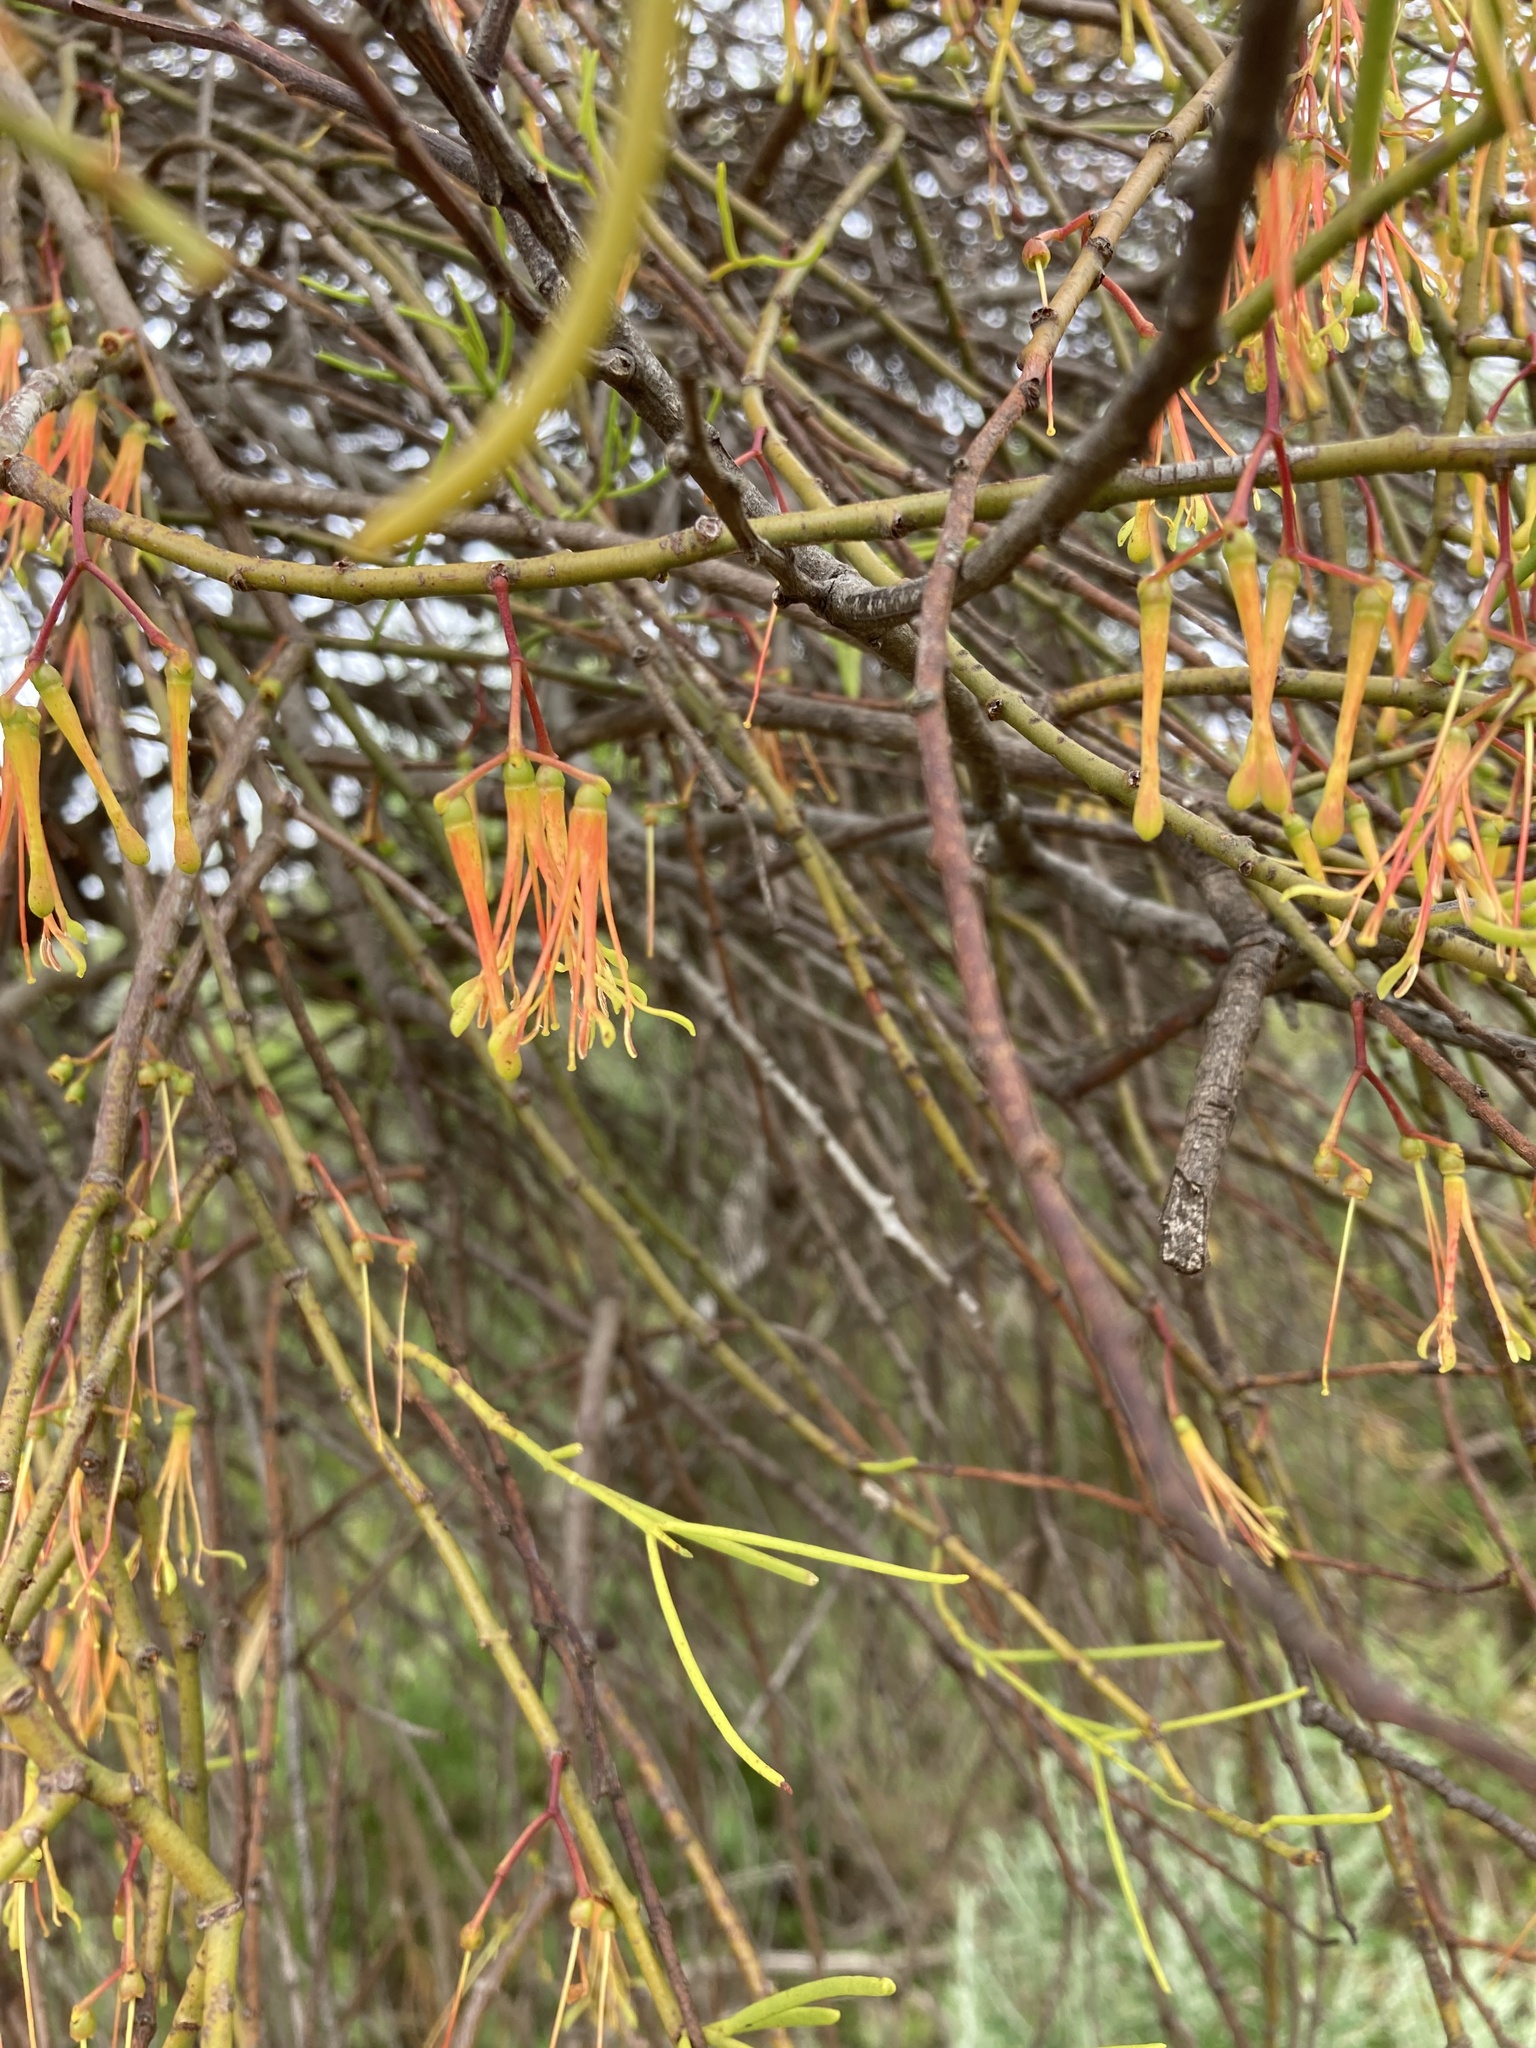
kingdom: Plantae
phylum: Tracheophyta
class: Magnoliopsida
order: Santalales
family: Loranthaceae
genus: Amyema
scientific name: Amyema preissii
